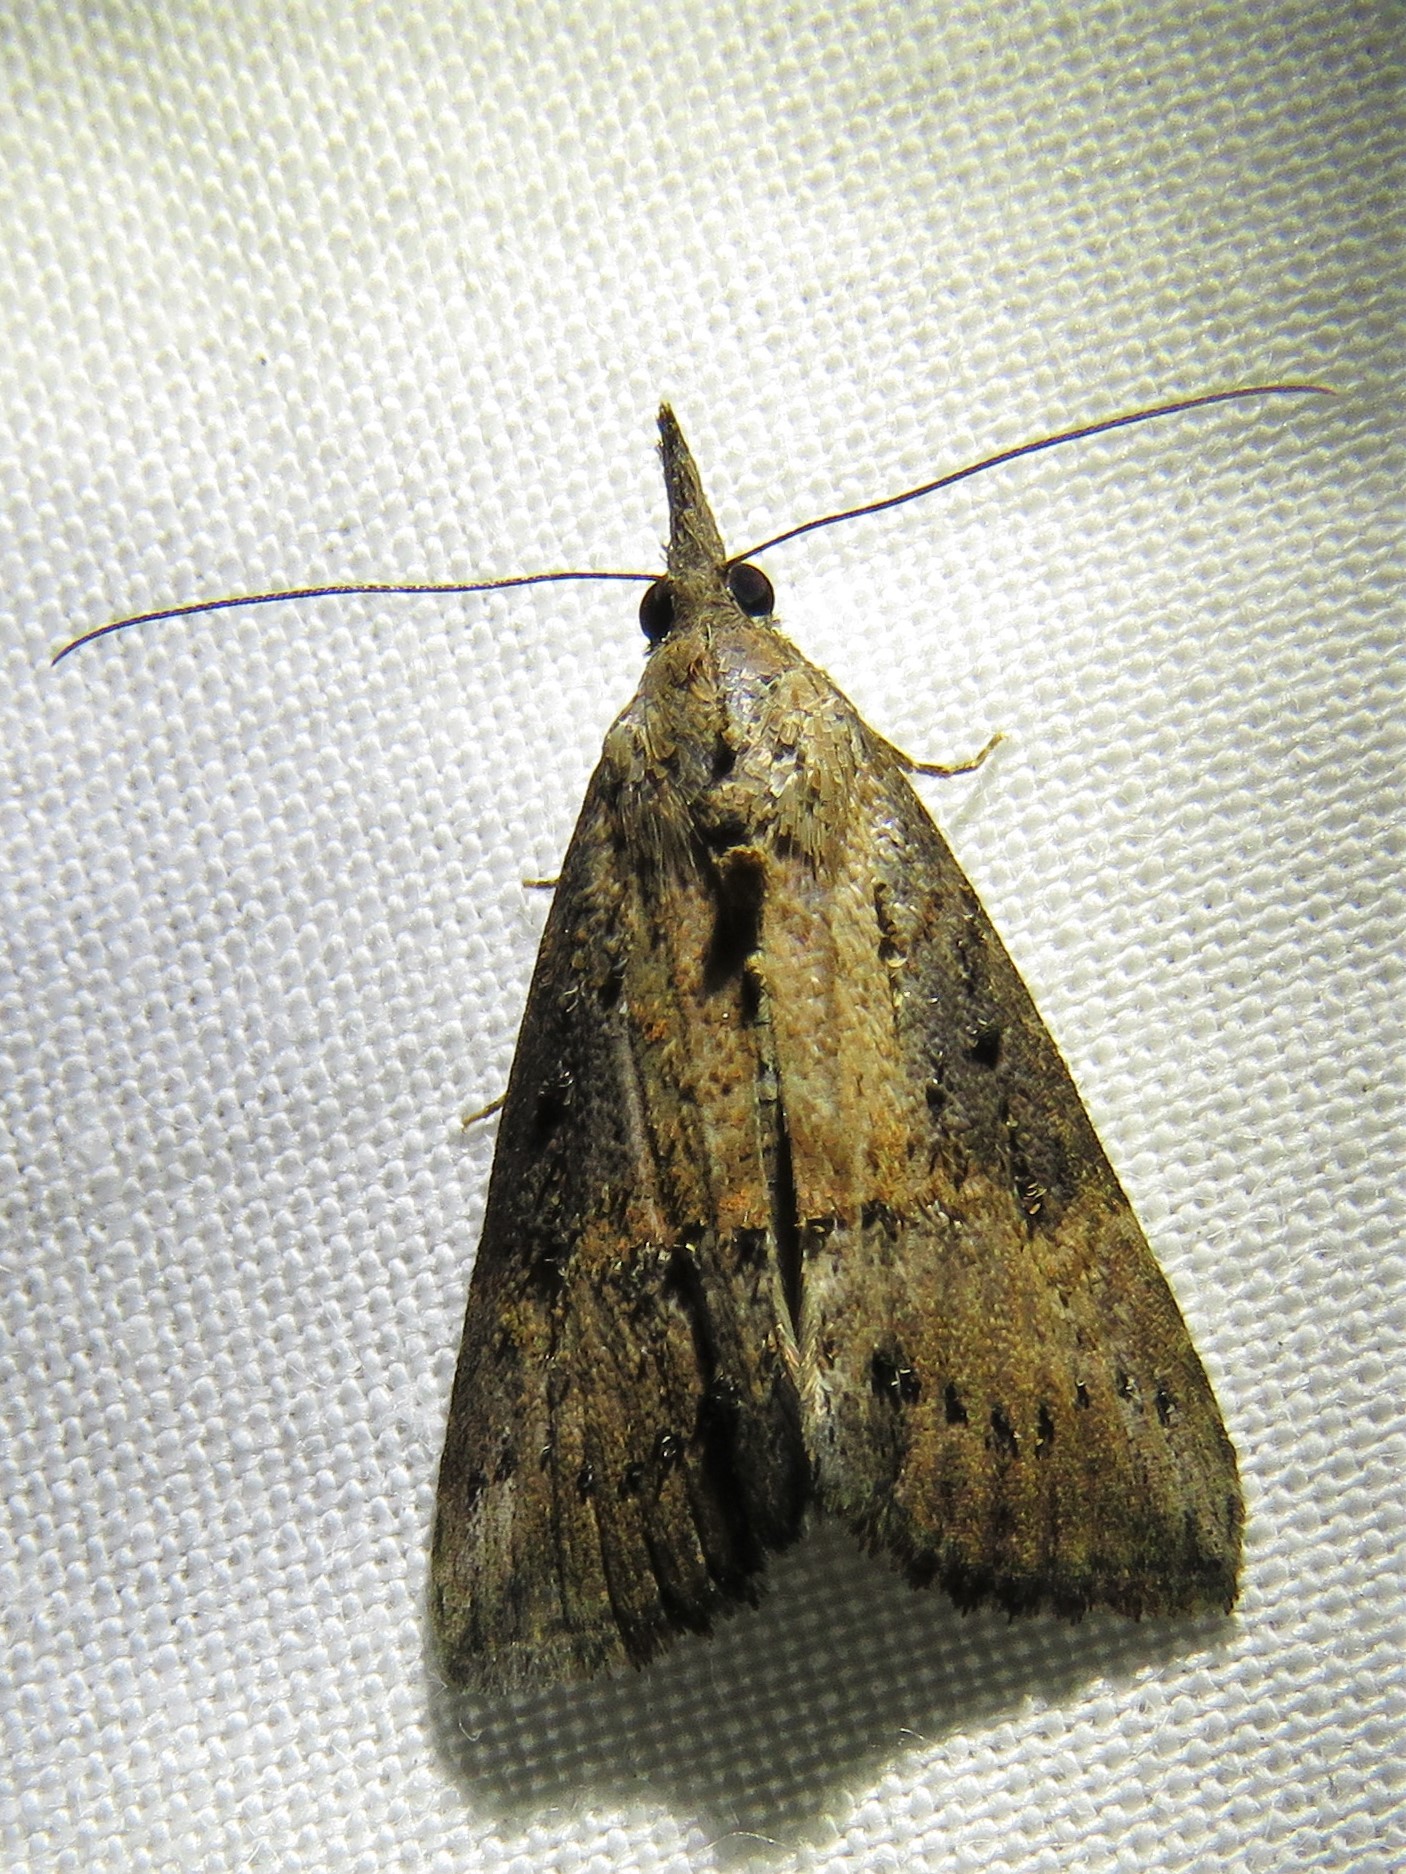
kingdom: Animalia
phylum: Arthropoda
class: Insecta
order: Lepidoptera
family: Erebidae
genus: Hypena
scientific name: Hypena scabra
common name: Green cloverworm
